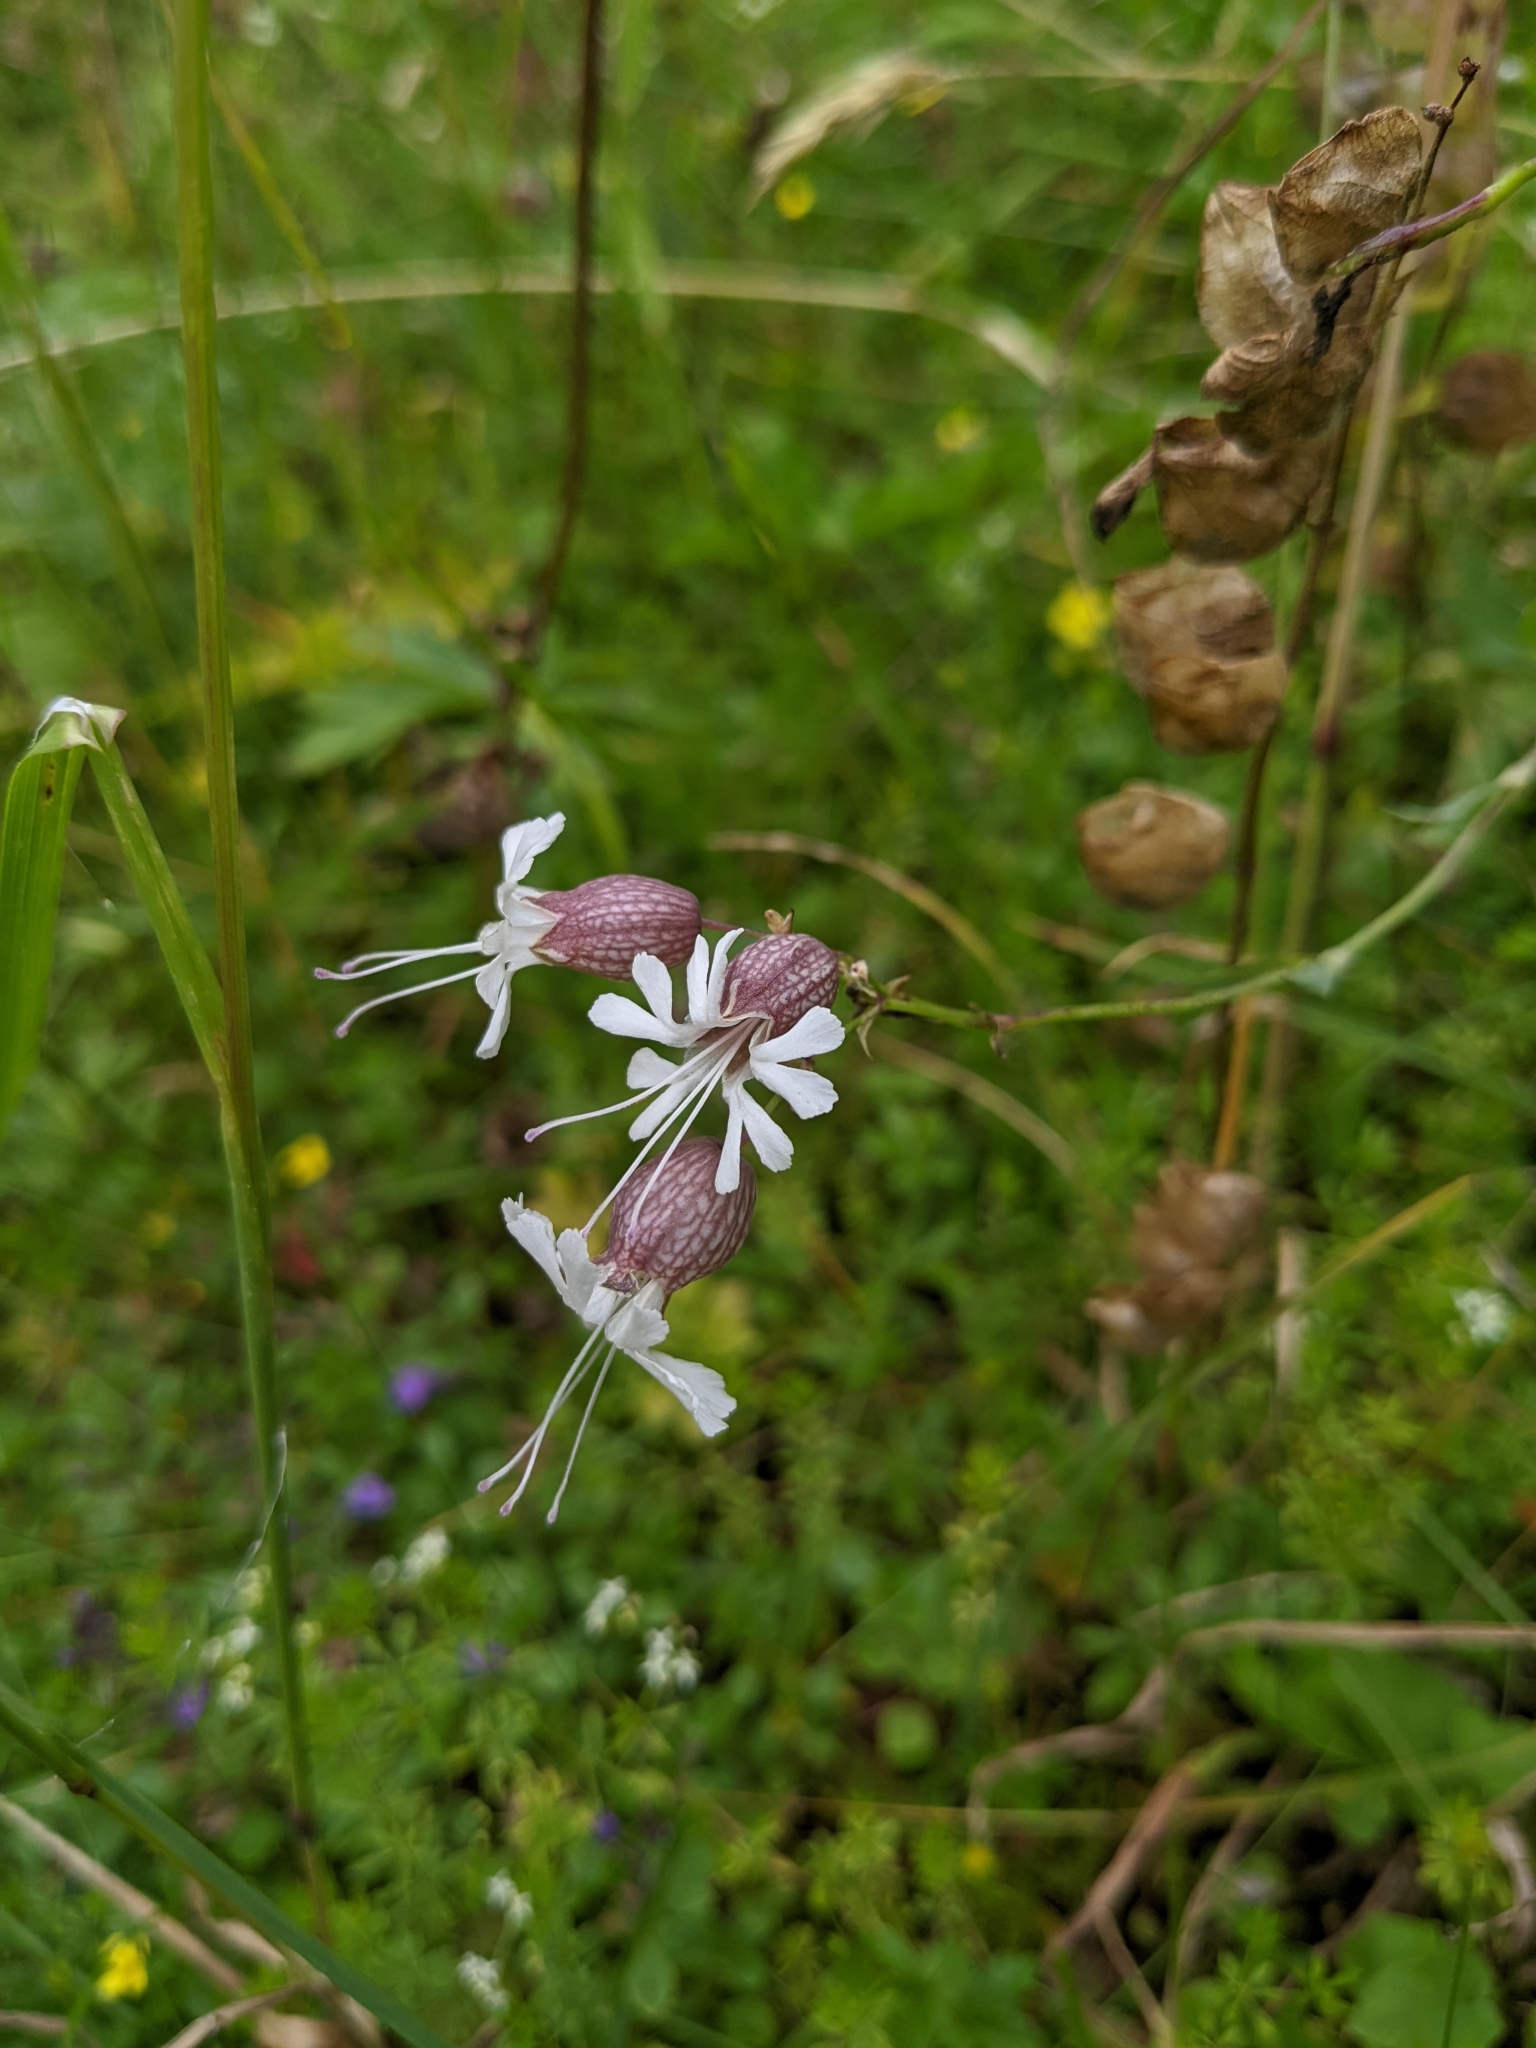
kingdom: Plantae
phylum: Tracheophyta
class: Magnoliopsida
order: Caryophyllales
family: Caryophyllaceae
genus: Silene
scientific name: Silene vulgaris
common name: Bladder campion
